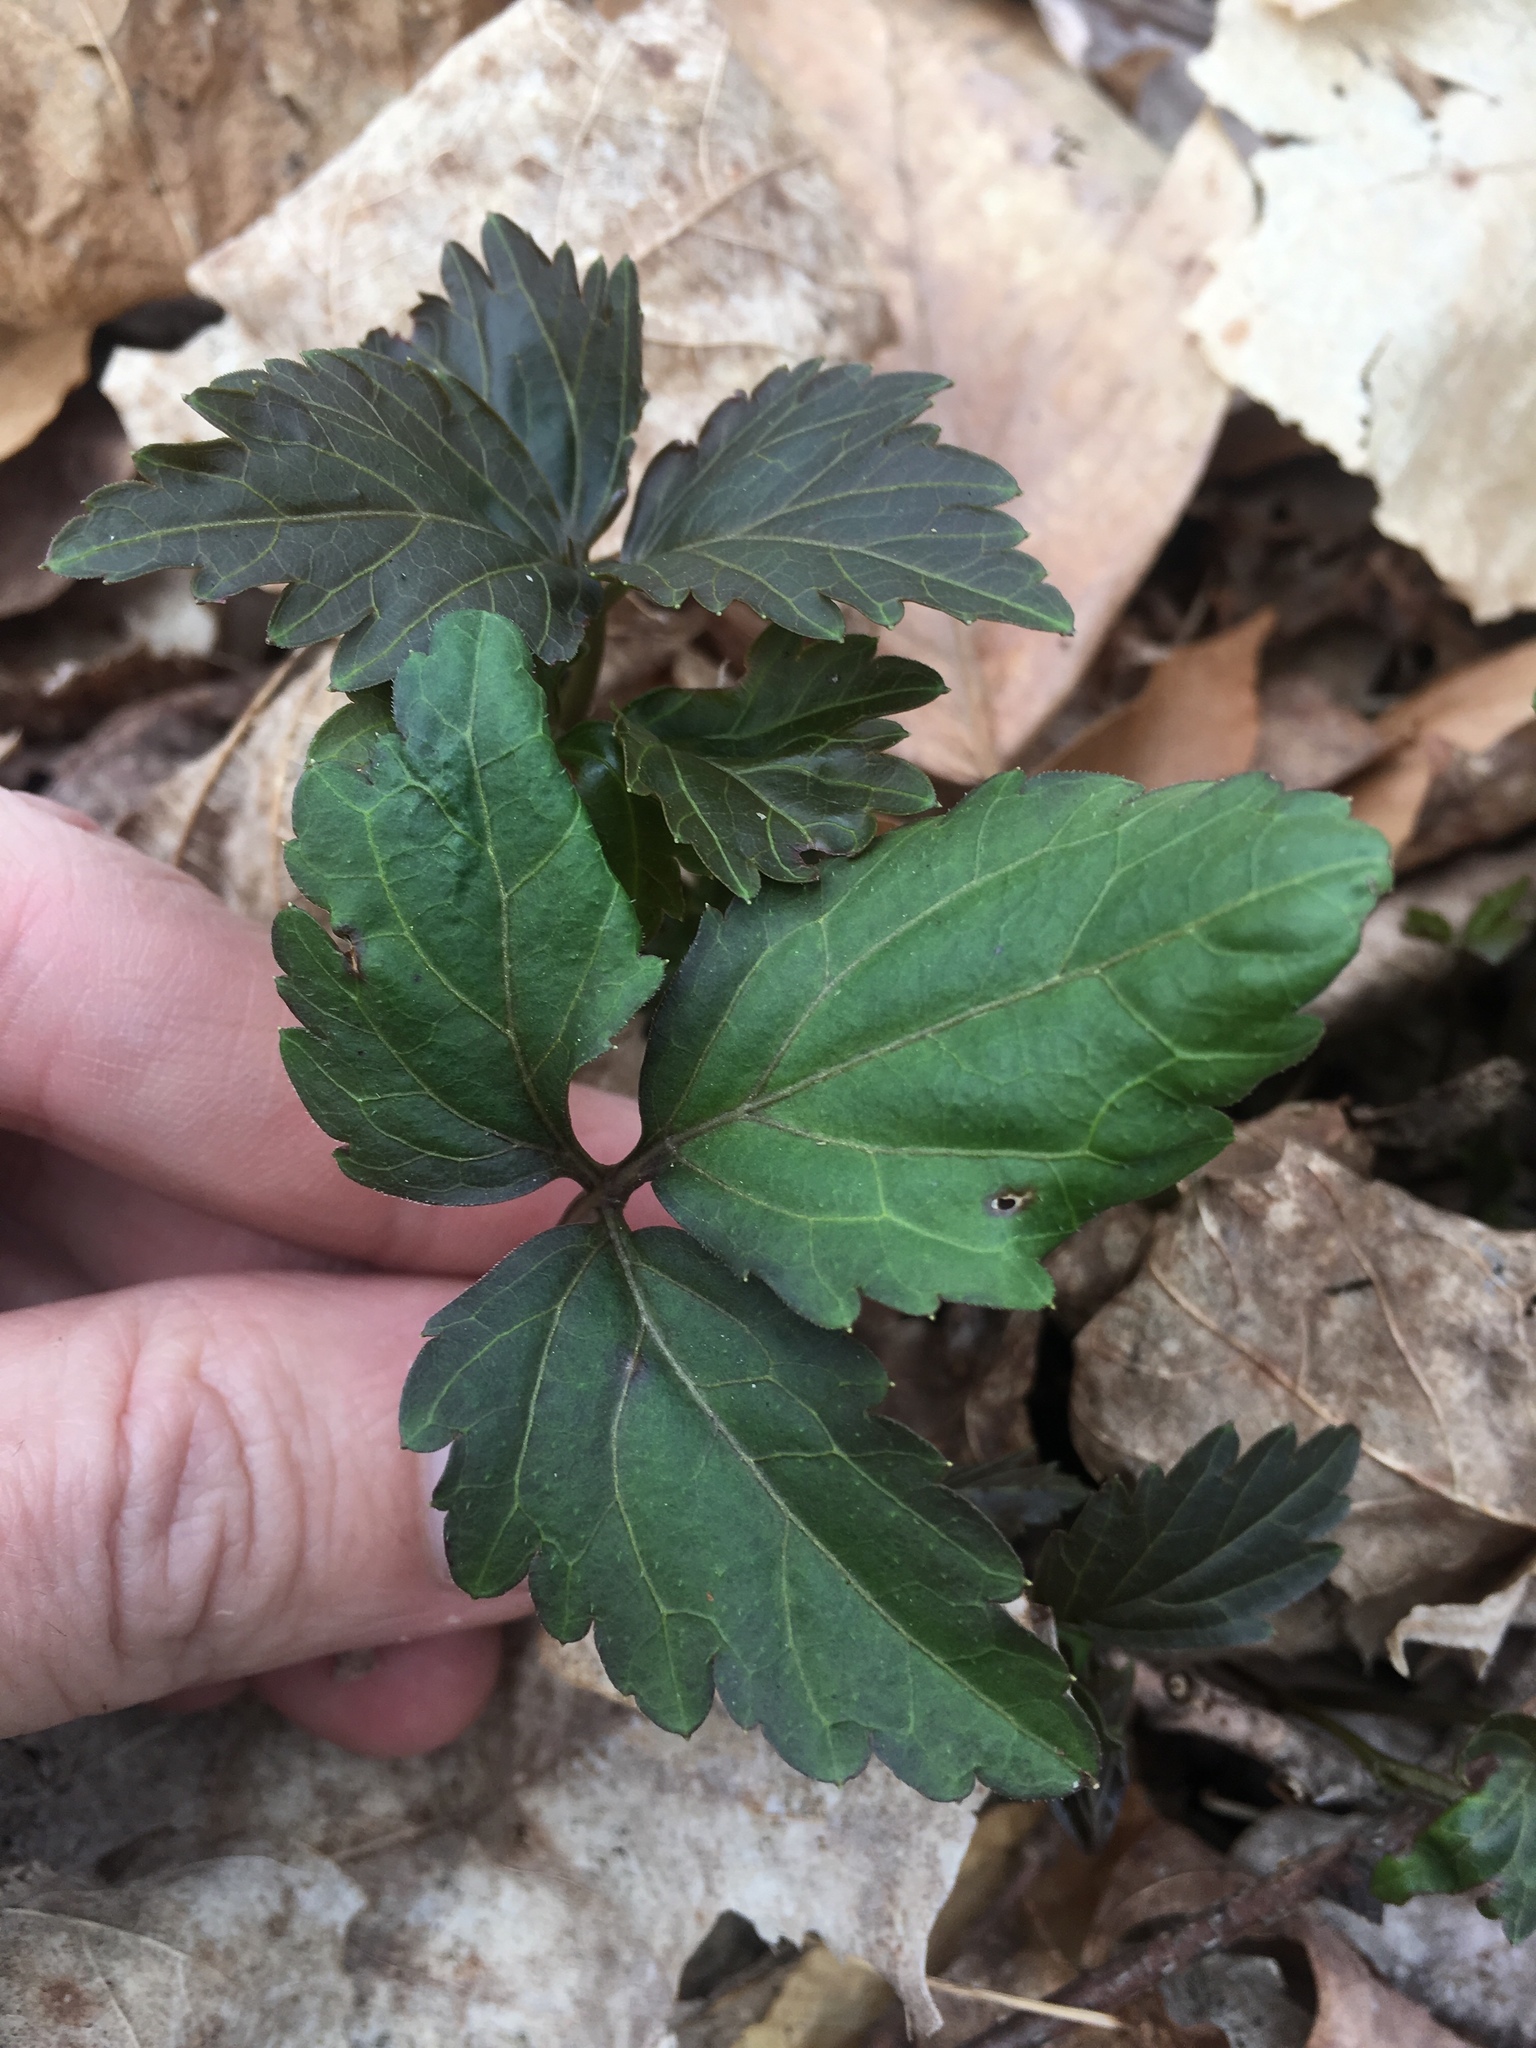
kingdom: Plantae
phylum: Tracheophyta
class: Magnoliopsida
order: Brassicales
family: Brassicaceae
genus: Cardamine
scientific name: Cardamine diphylla
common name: Broad-leaved toothwort
